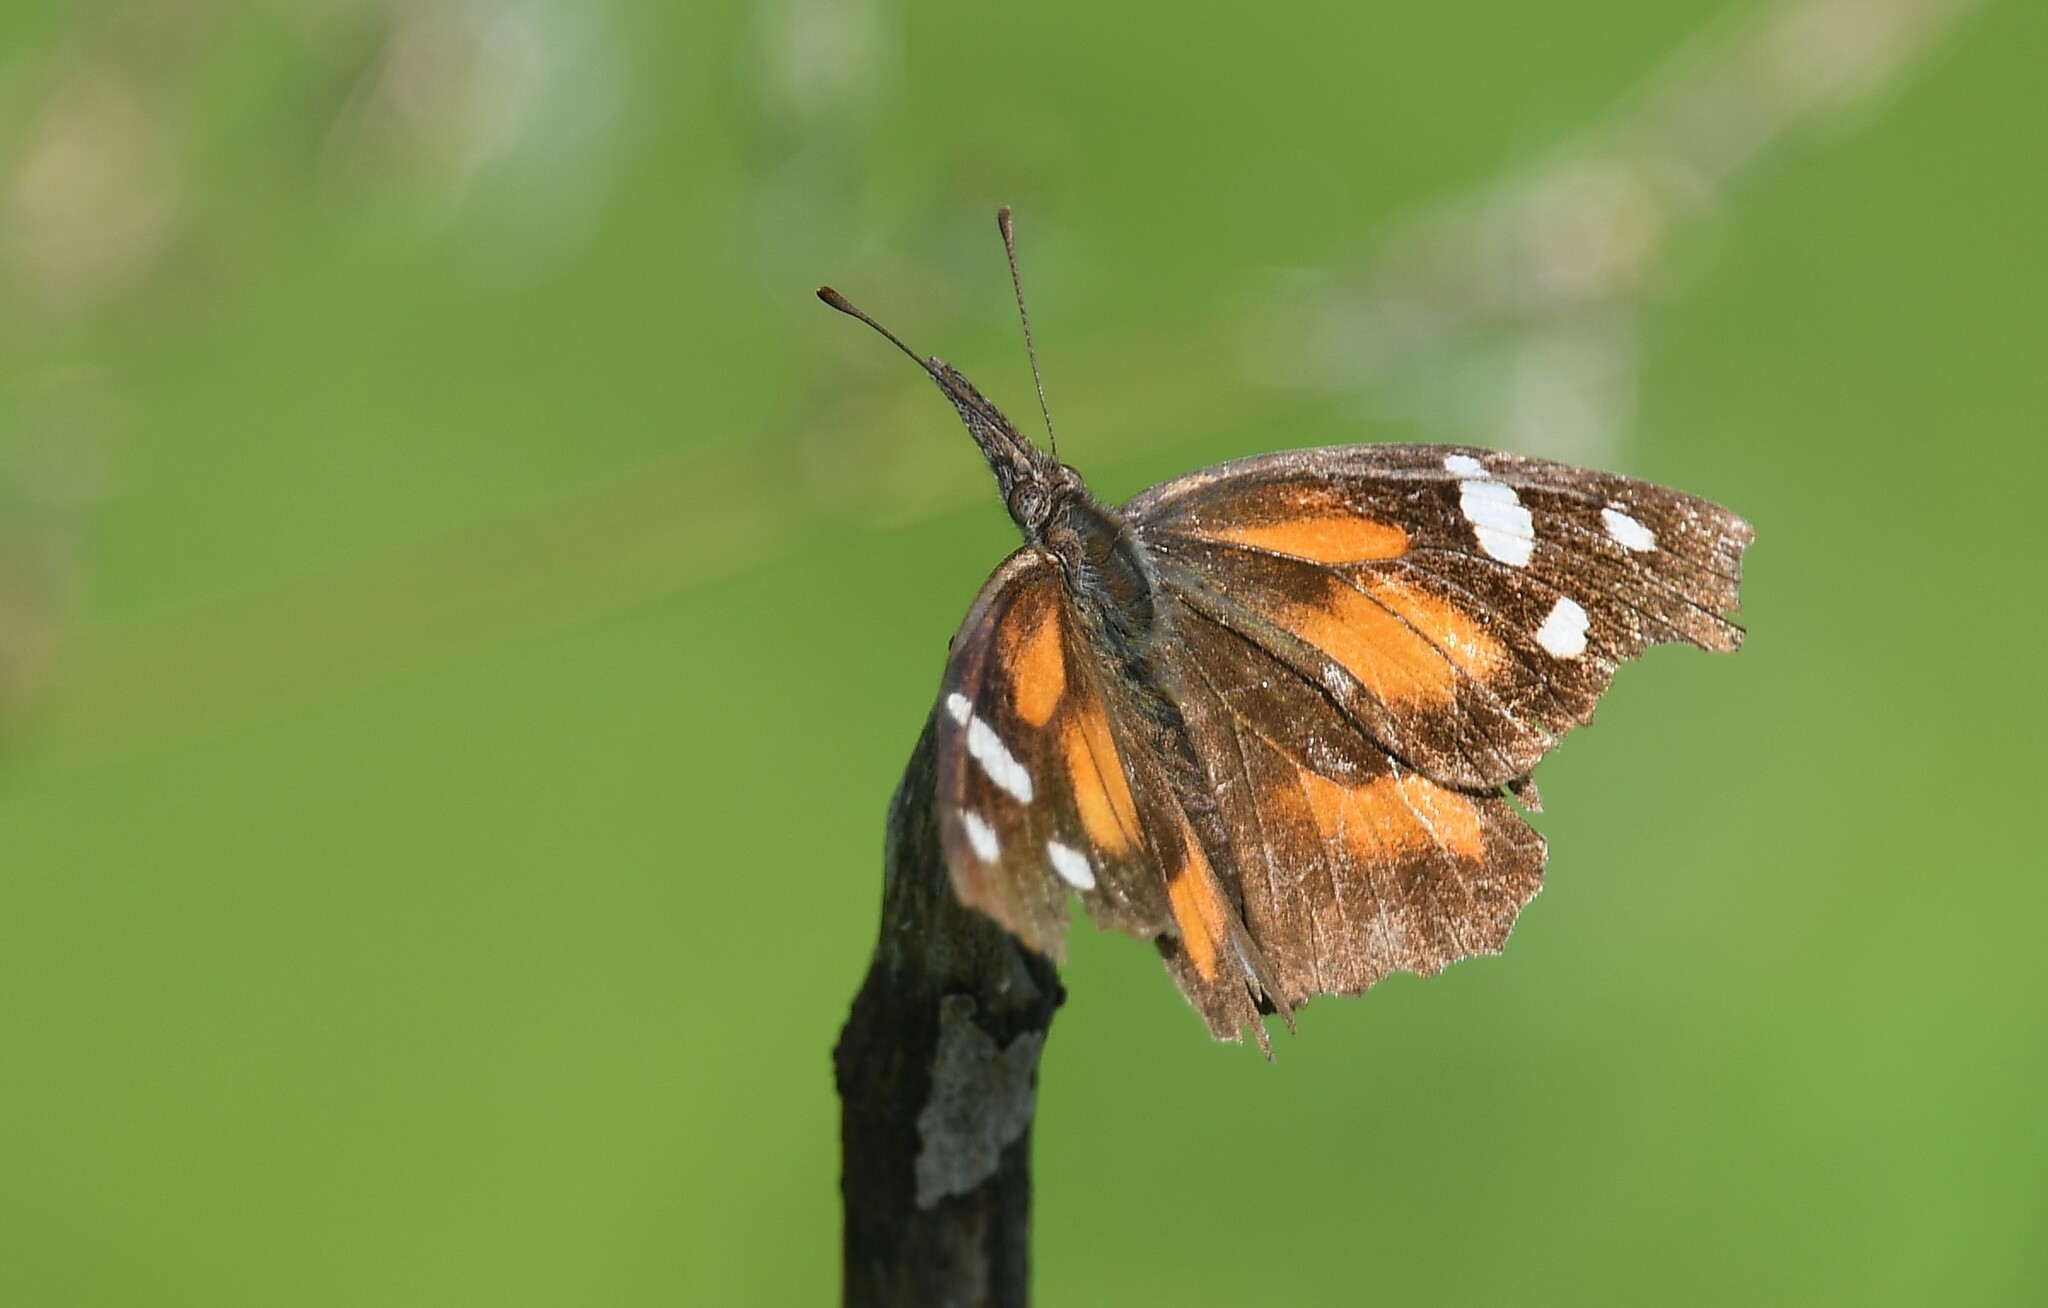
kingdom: Animalia
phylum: Arthropoda
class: Insecta
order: Lepidoptera
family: Nymphalidae
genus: Libytheana
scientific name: Libytheana carinenta
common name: American snout
